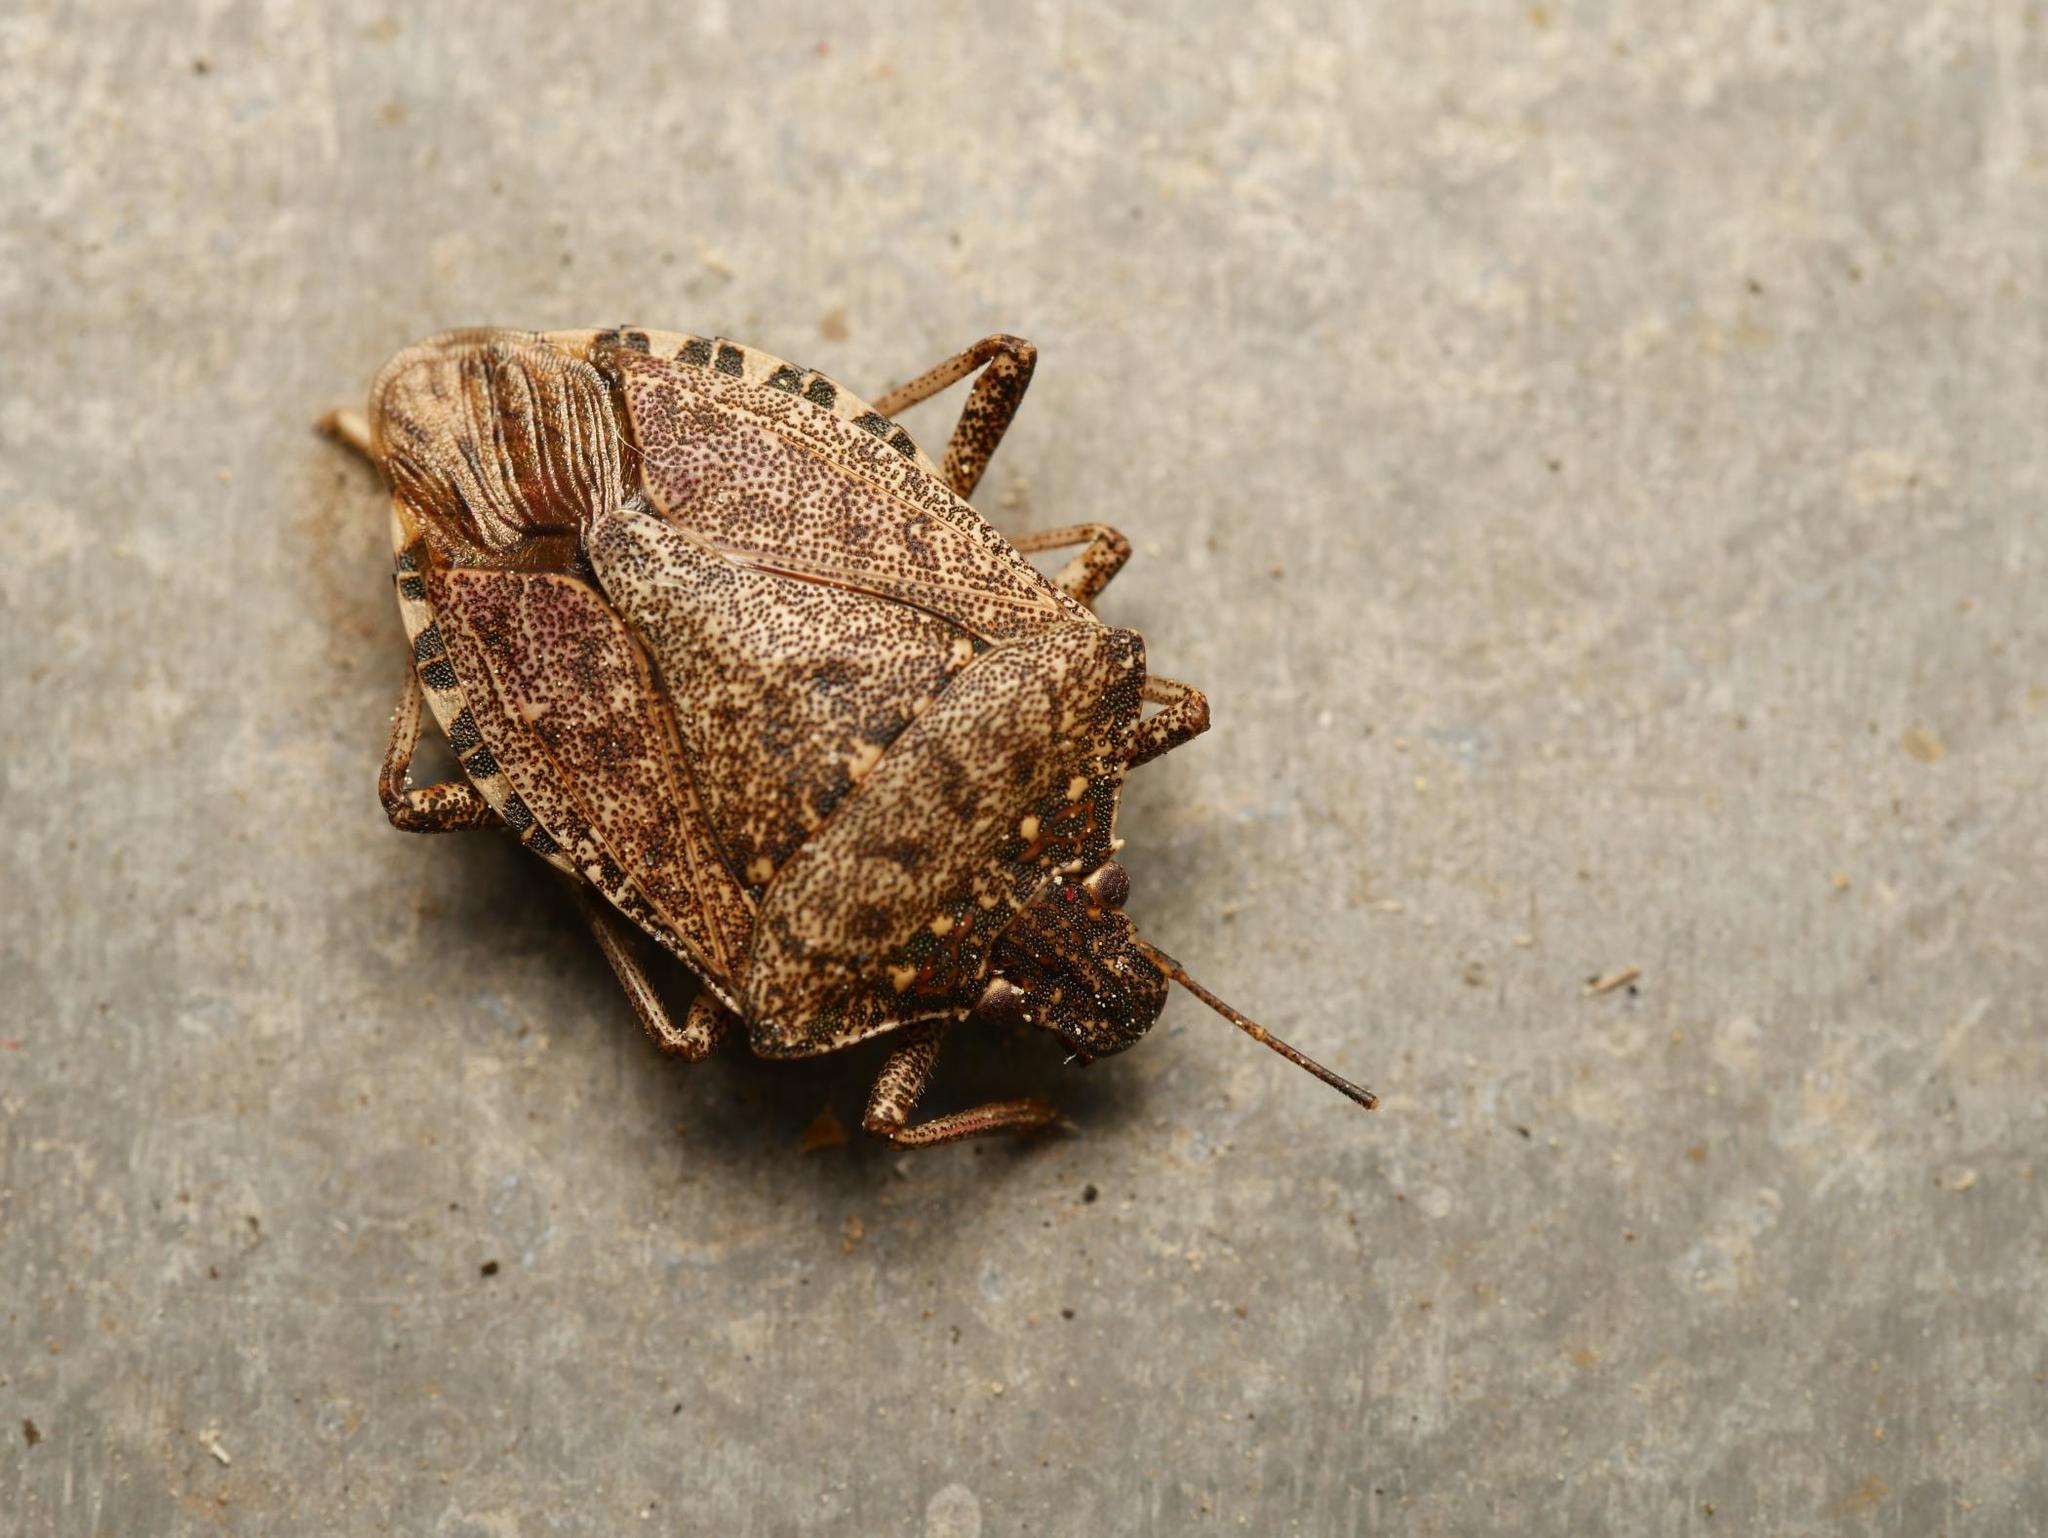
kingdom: Animalia
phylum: Arthropoda
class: Insecta
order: Hemiptera
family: Pentatomidae
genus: Halyomorpha
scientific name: Halyomorpha halys
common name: Brown marmorated stink bug
